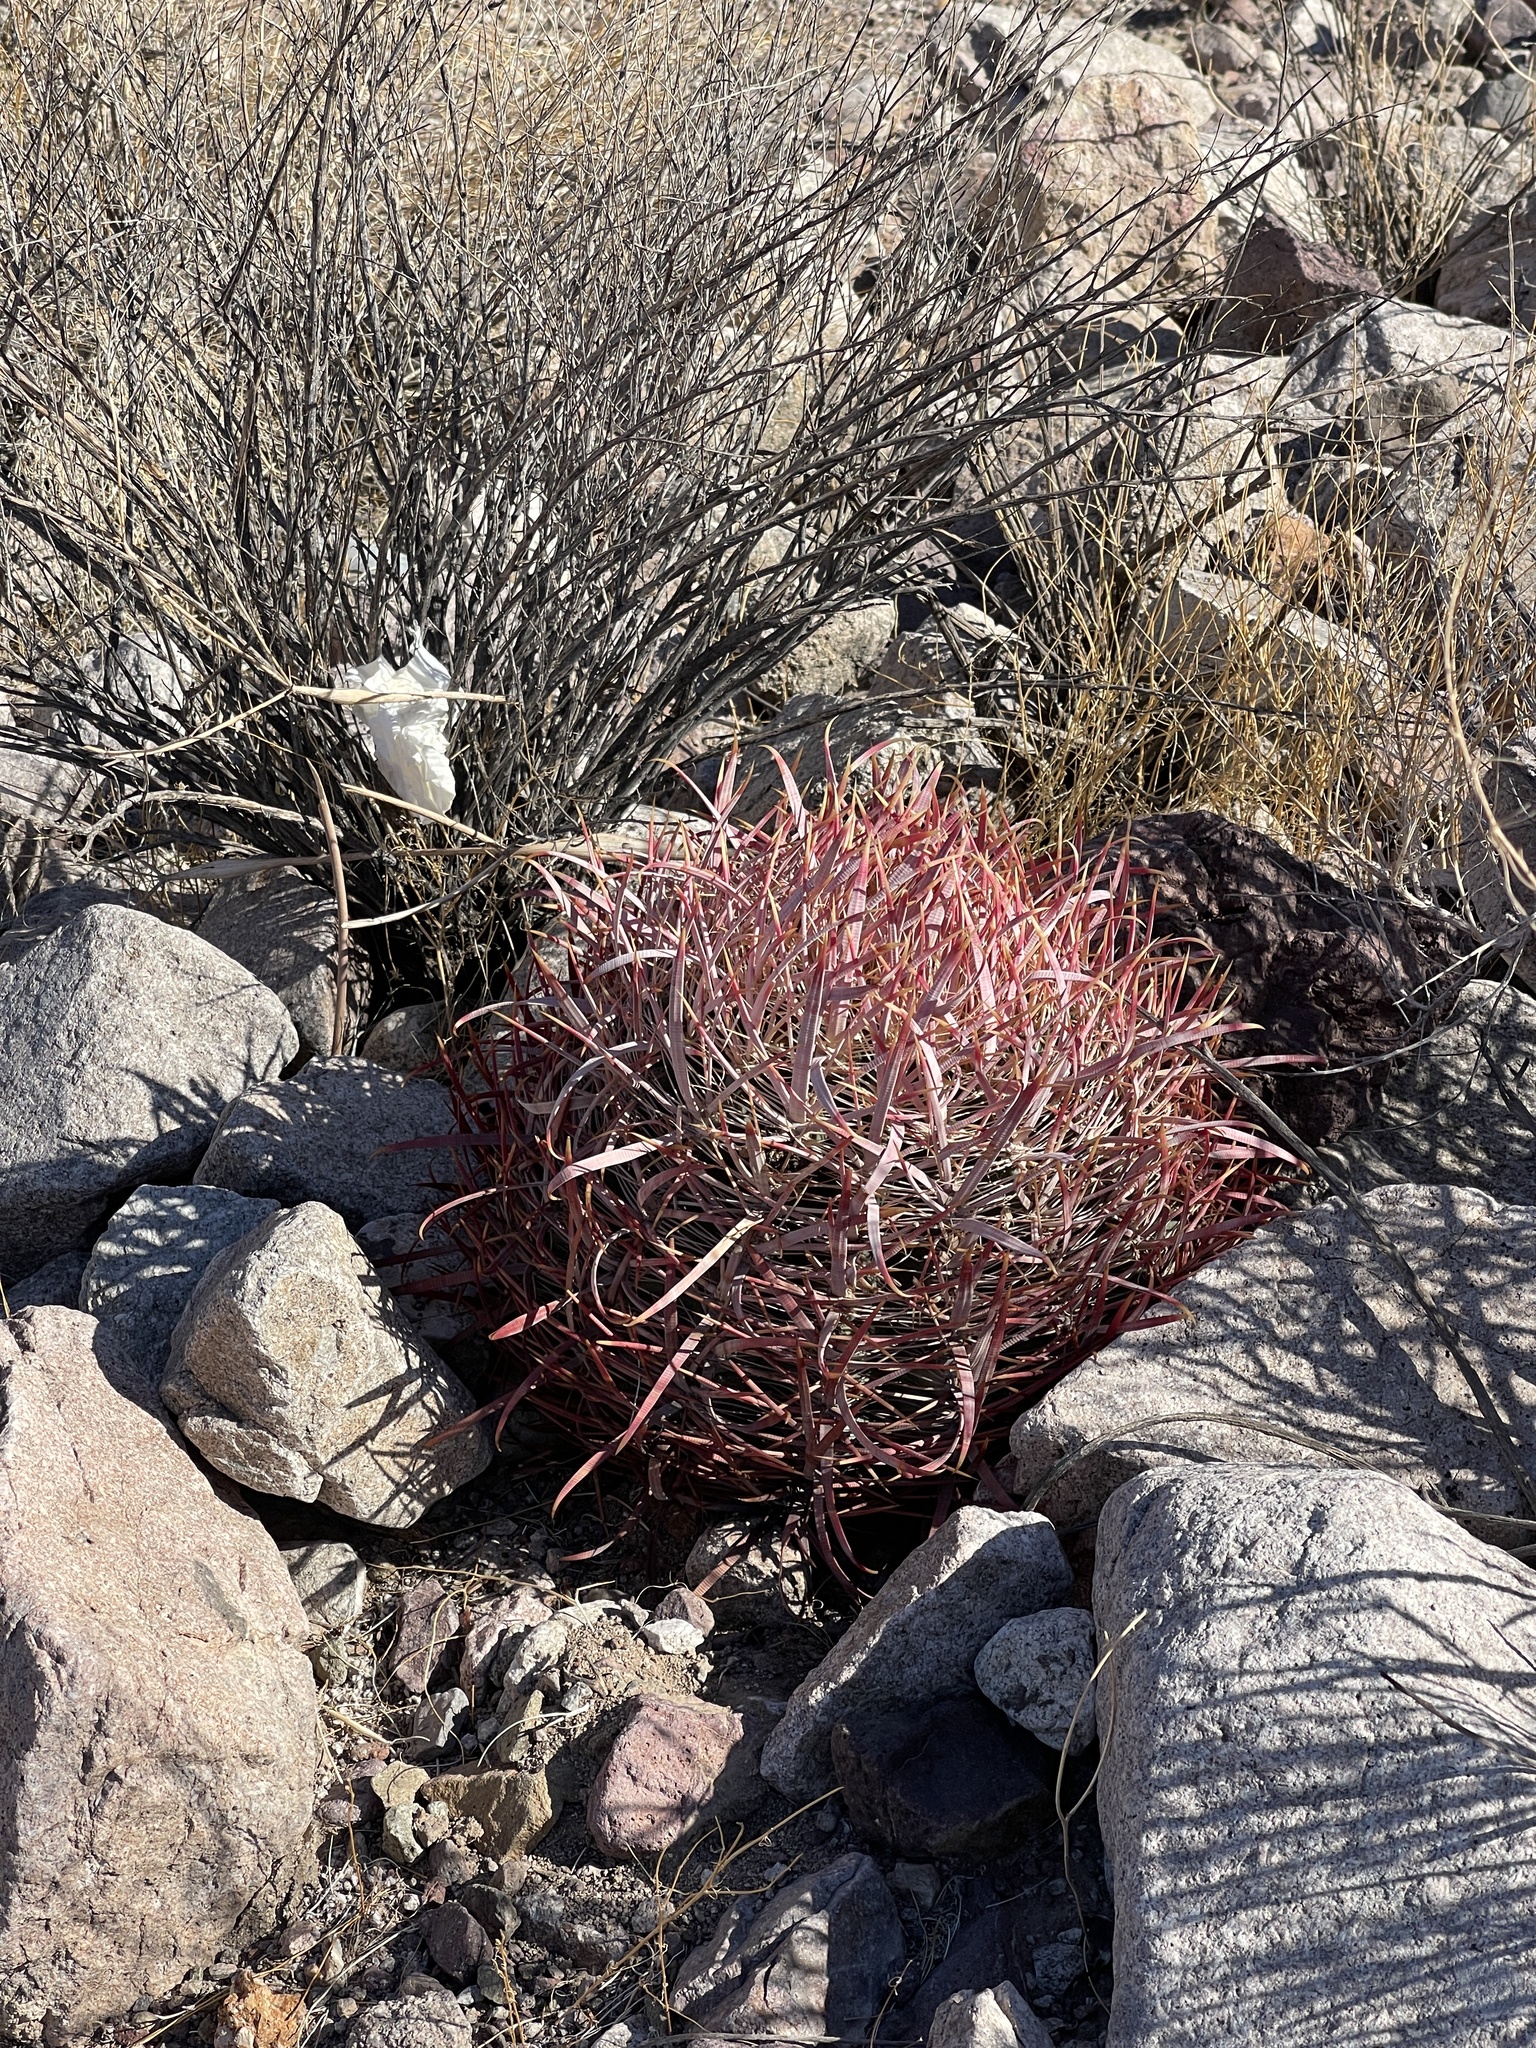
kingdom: Plantae
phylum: Tracheophyta
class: Magnoliopsida
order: Caryophyllales
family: Cactaceae
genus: Ferocactus
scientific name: Ferocactus cylindraceus
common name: California barrel cactus
